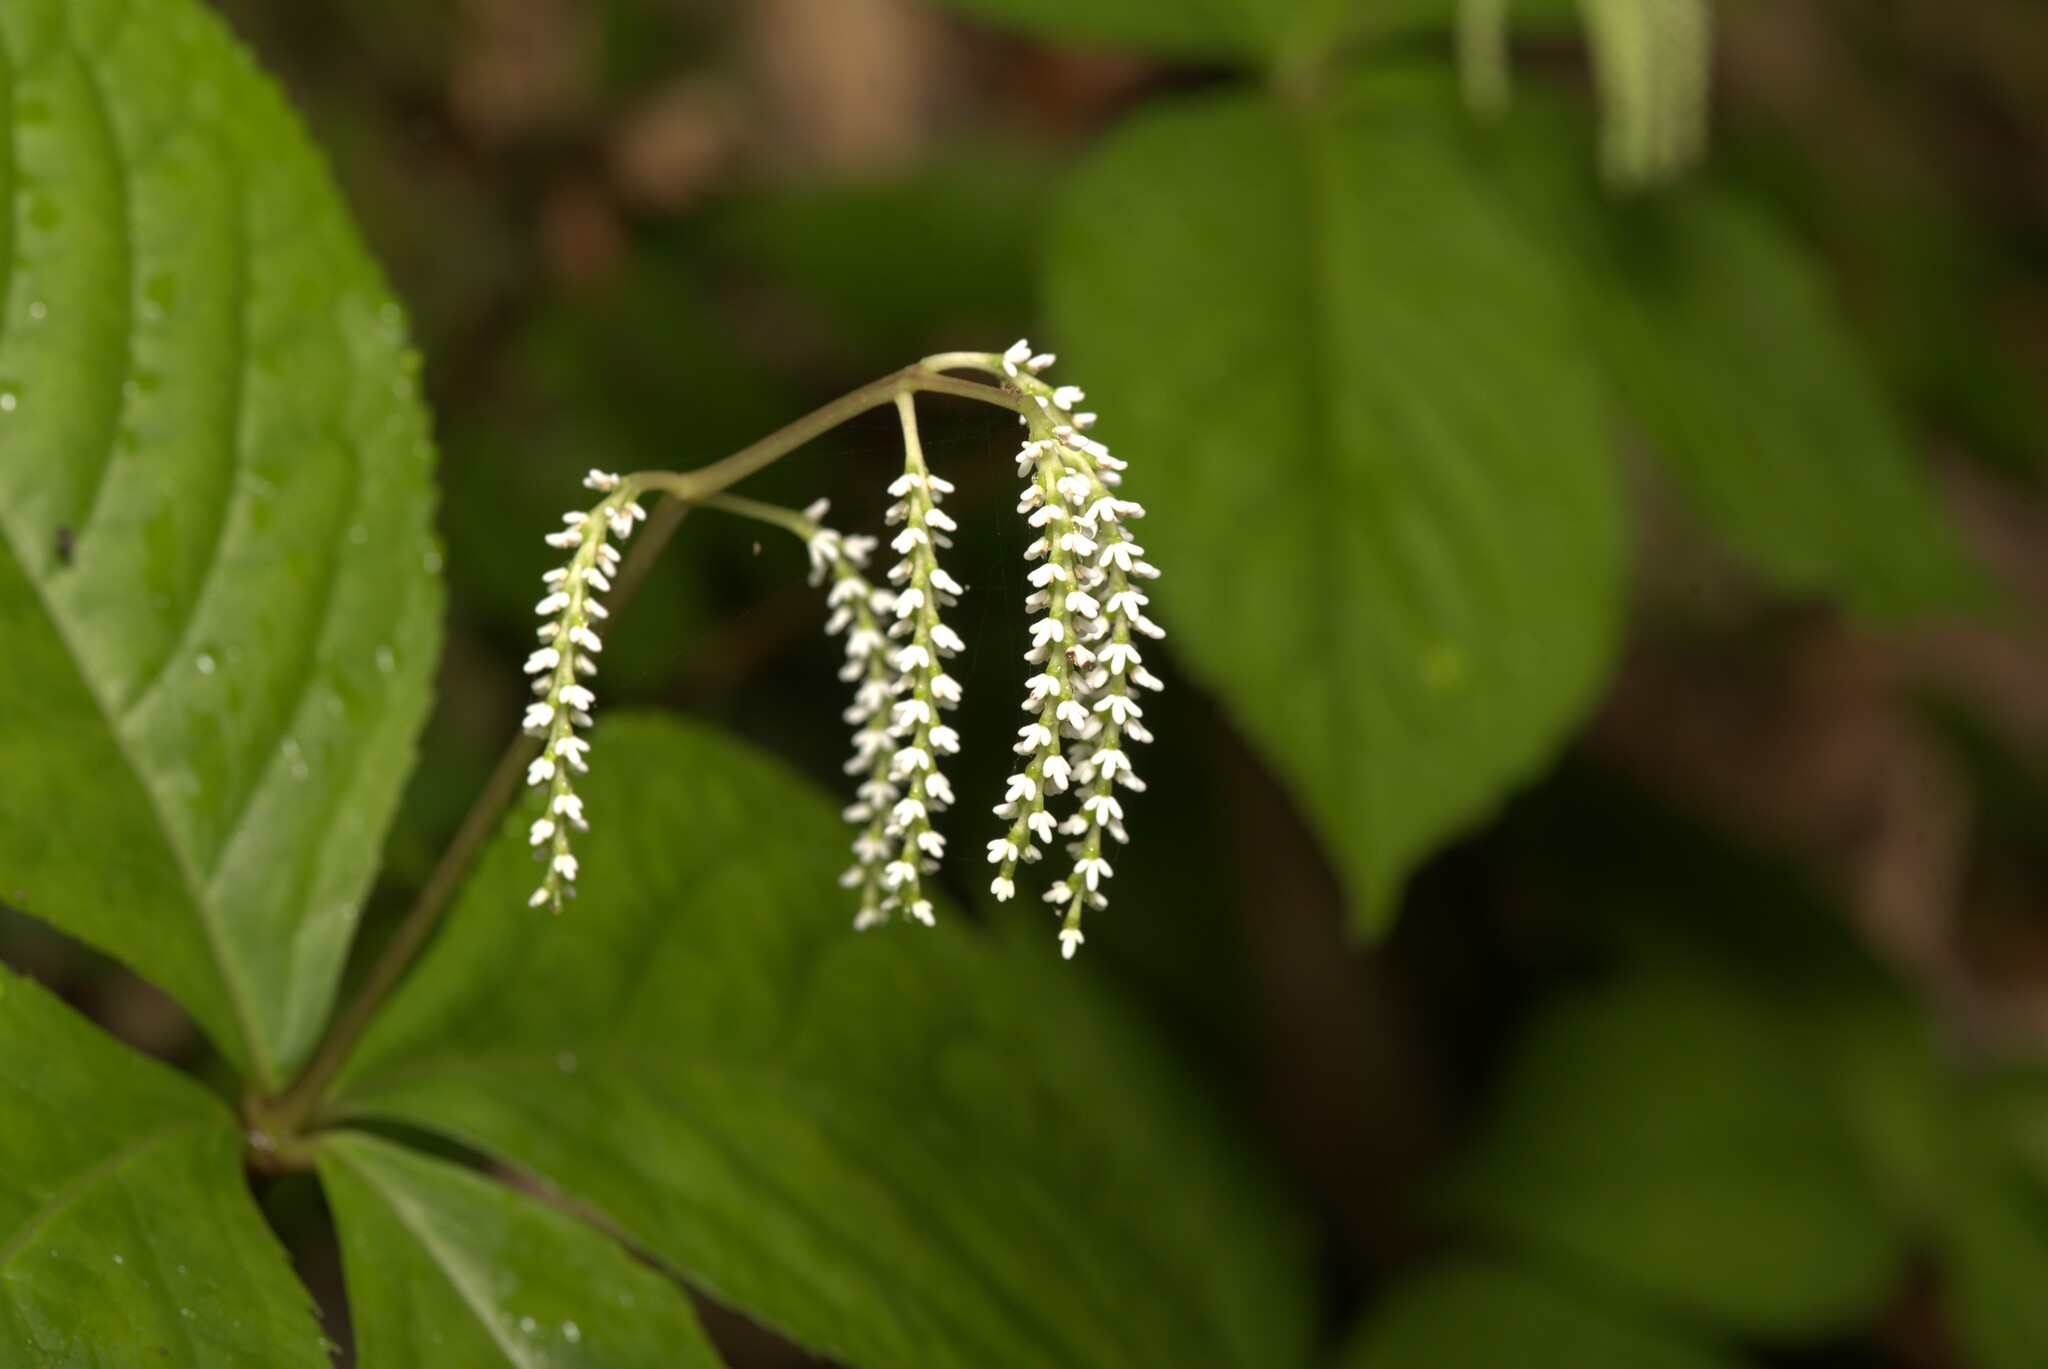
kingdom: Plantae
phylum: Tracheophyta
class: Magnoliopsida
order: Chloranthales
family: Chloranthaceae
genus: Chloranthus
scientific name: Chloranthus oldhamii
